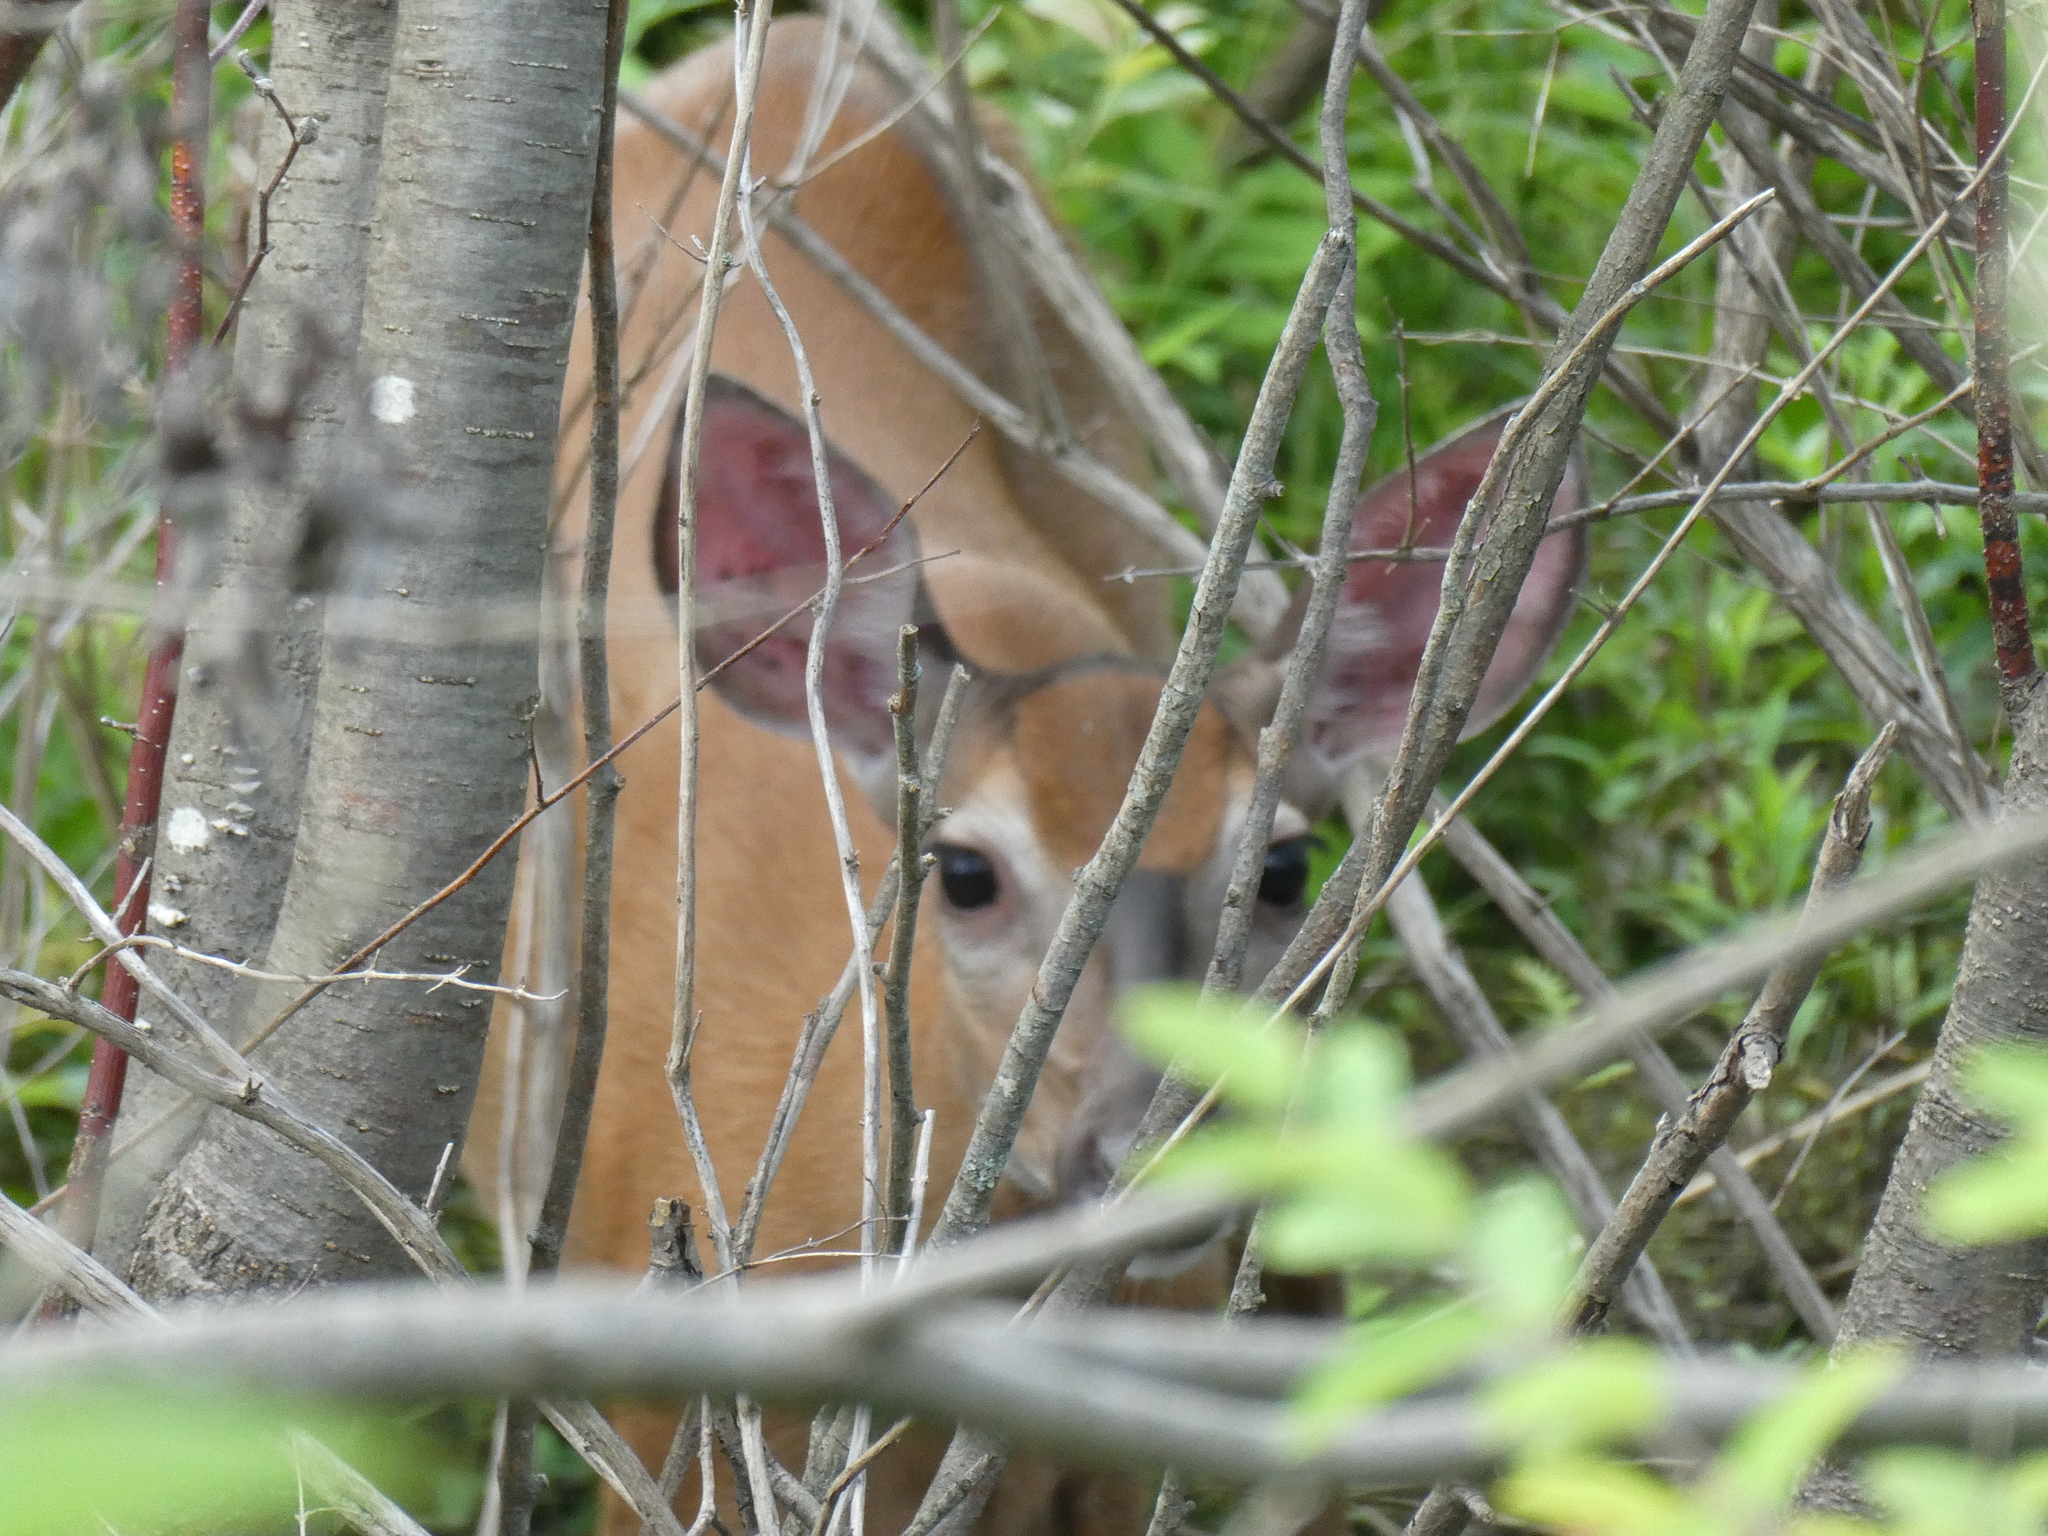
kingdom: Animalia
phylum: Chordata
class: Mammalia
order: Artiodactyla
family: Cervidae
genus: Odocoileus
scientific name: Odocoileus virginianus
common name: White-tailed deer
